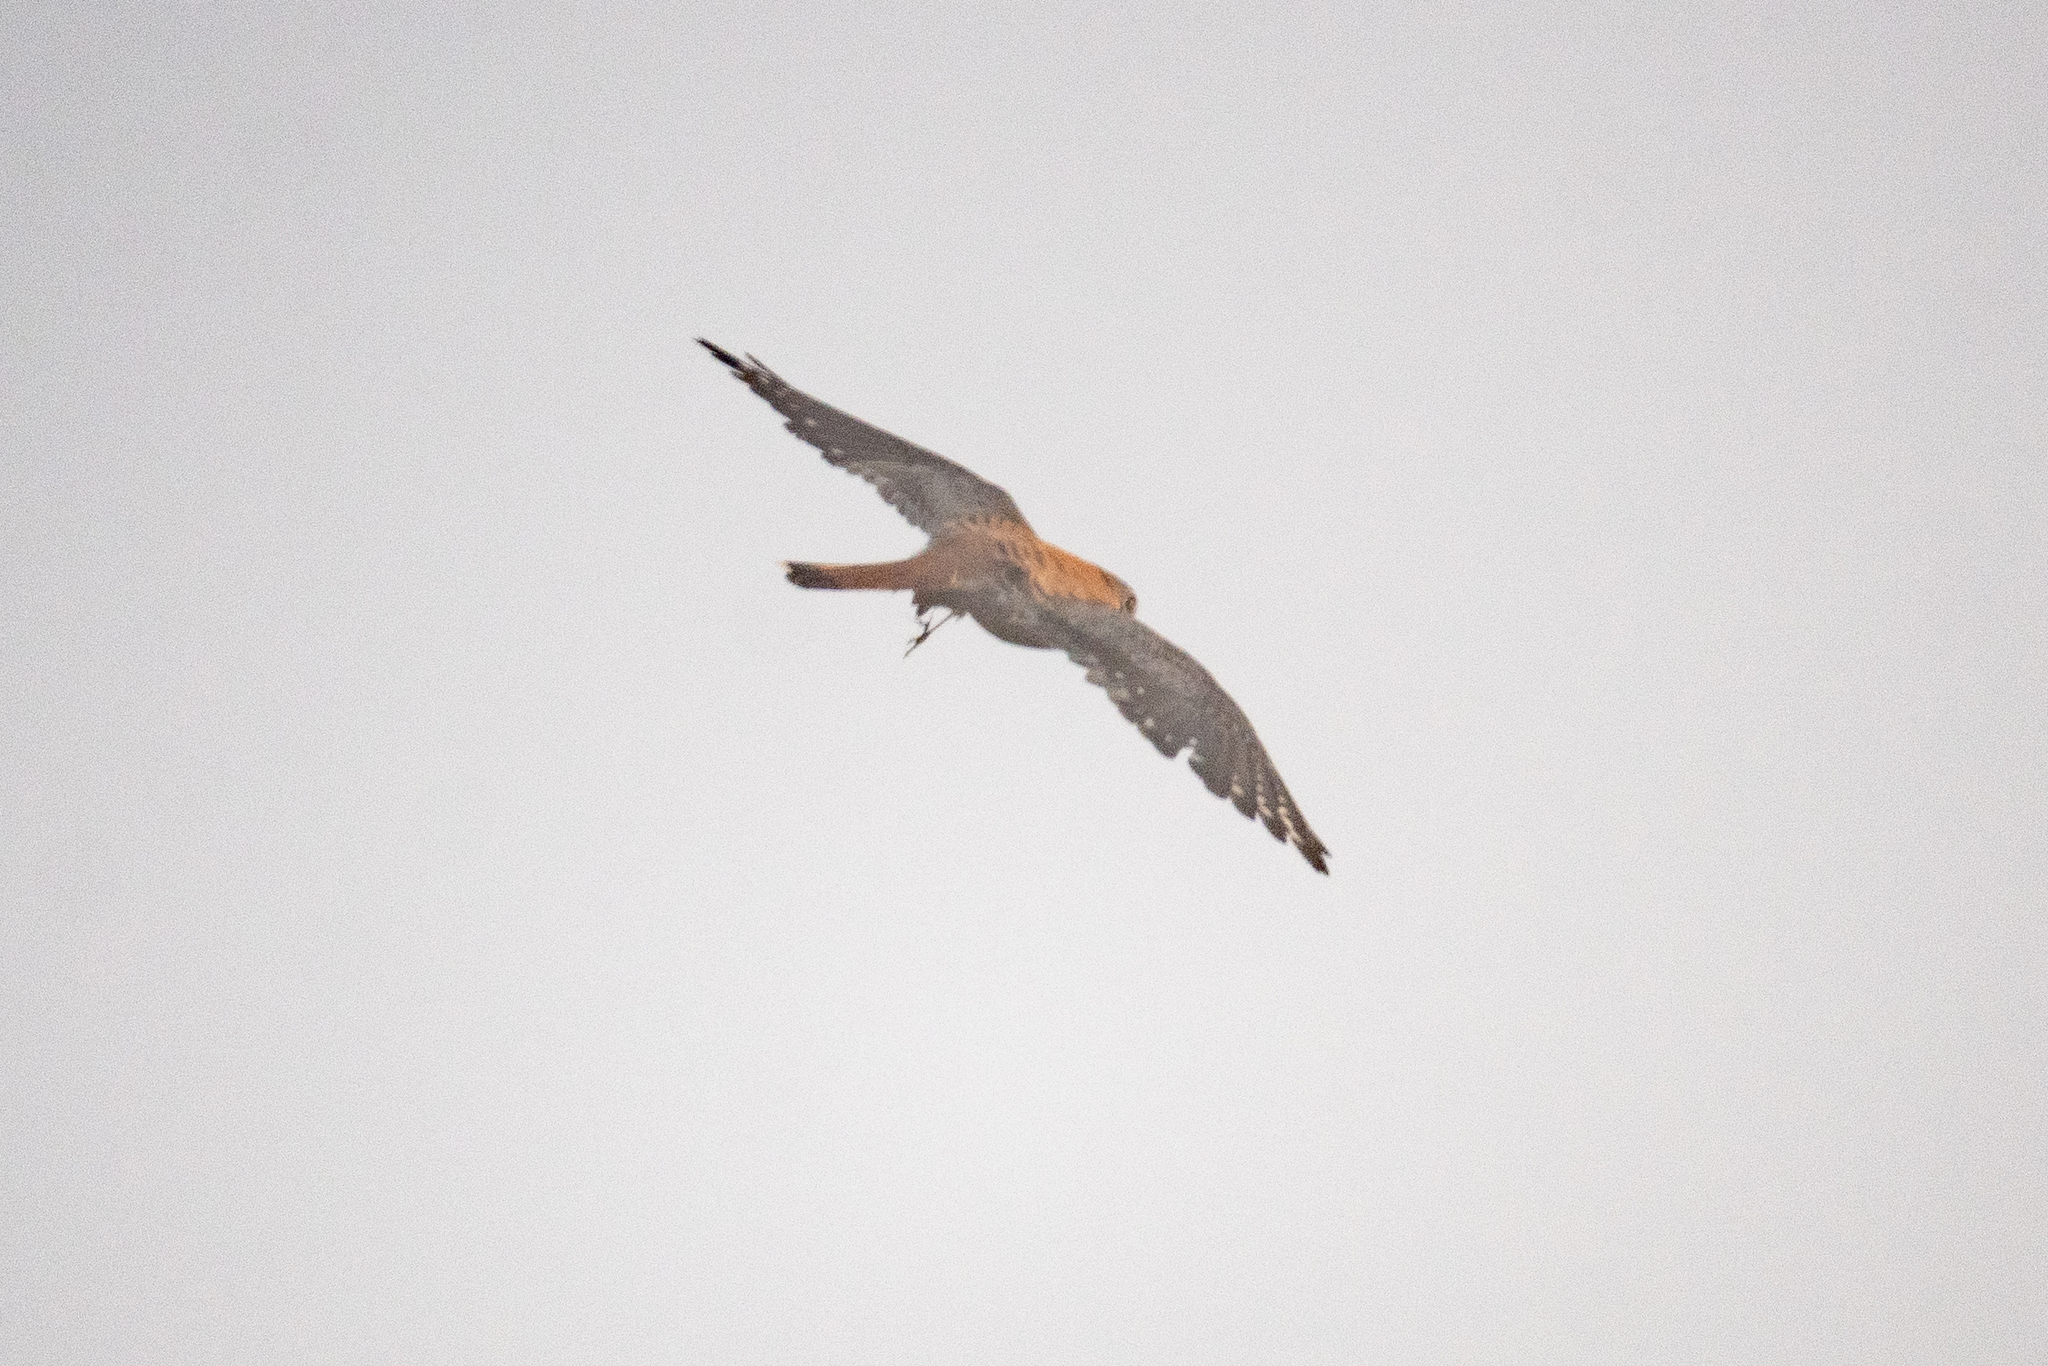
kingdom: Animalia
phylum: Chordata
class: Aves
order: Falconiformes
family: Falconidae
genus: Falco
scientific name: Falco sparverius
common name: American kestrel
